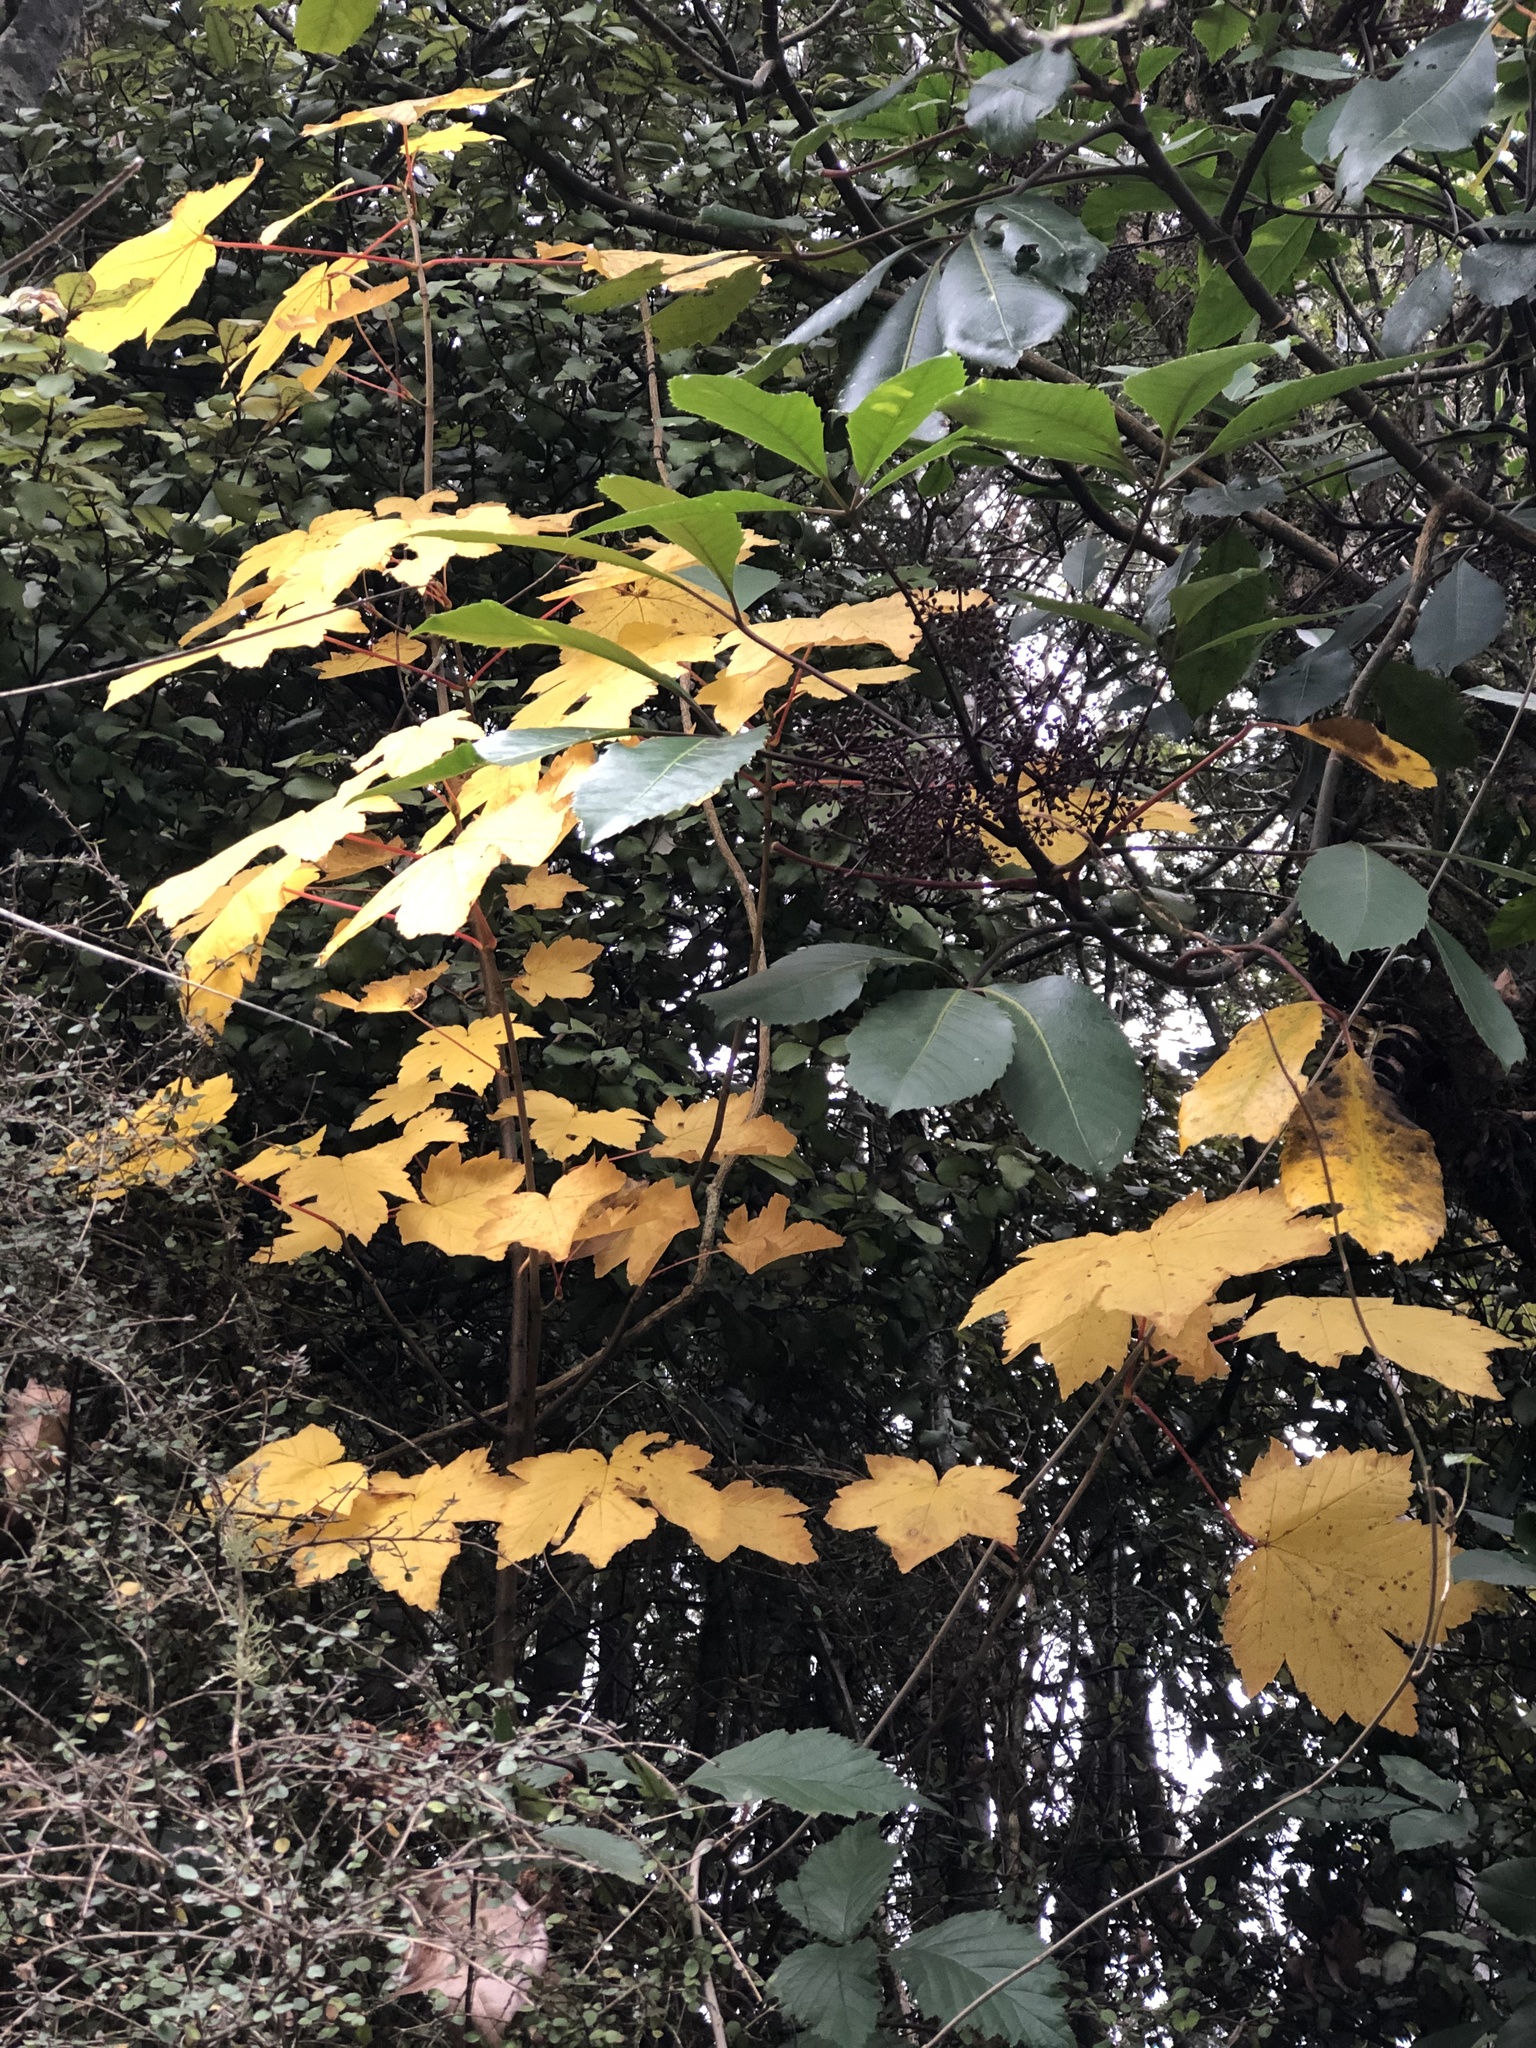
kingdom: Plantae
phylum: Tracheophyta
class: Magnoliopsida
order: Sapindales
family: Sapindaceae
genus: Acer
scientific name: Acer pseudoplatanus
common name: Sycamore
